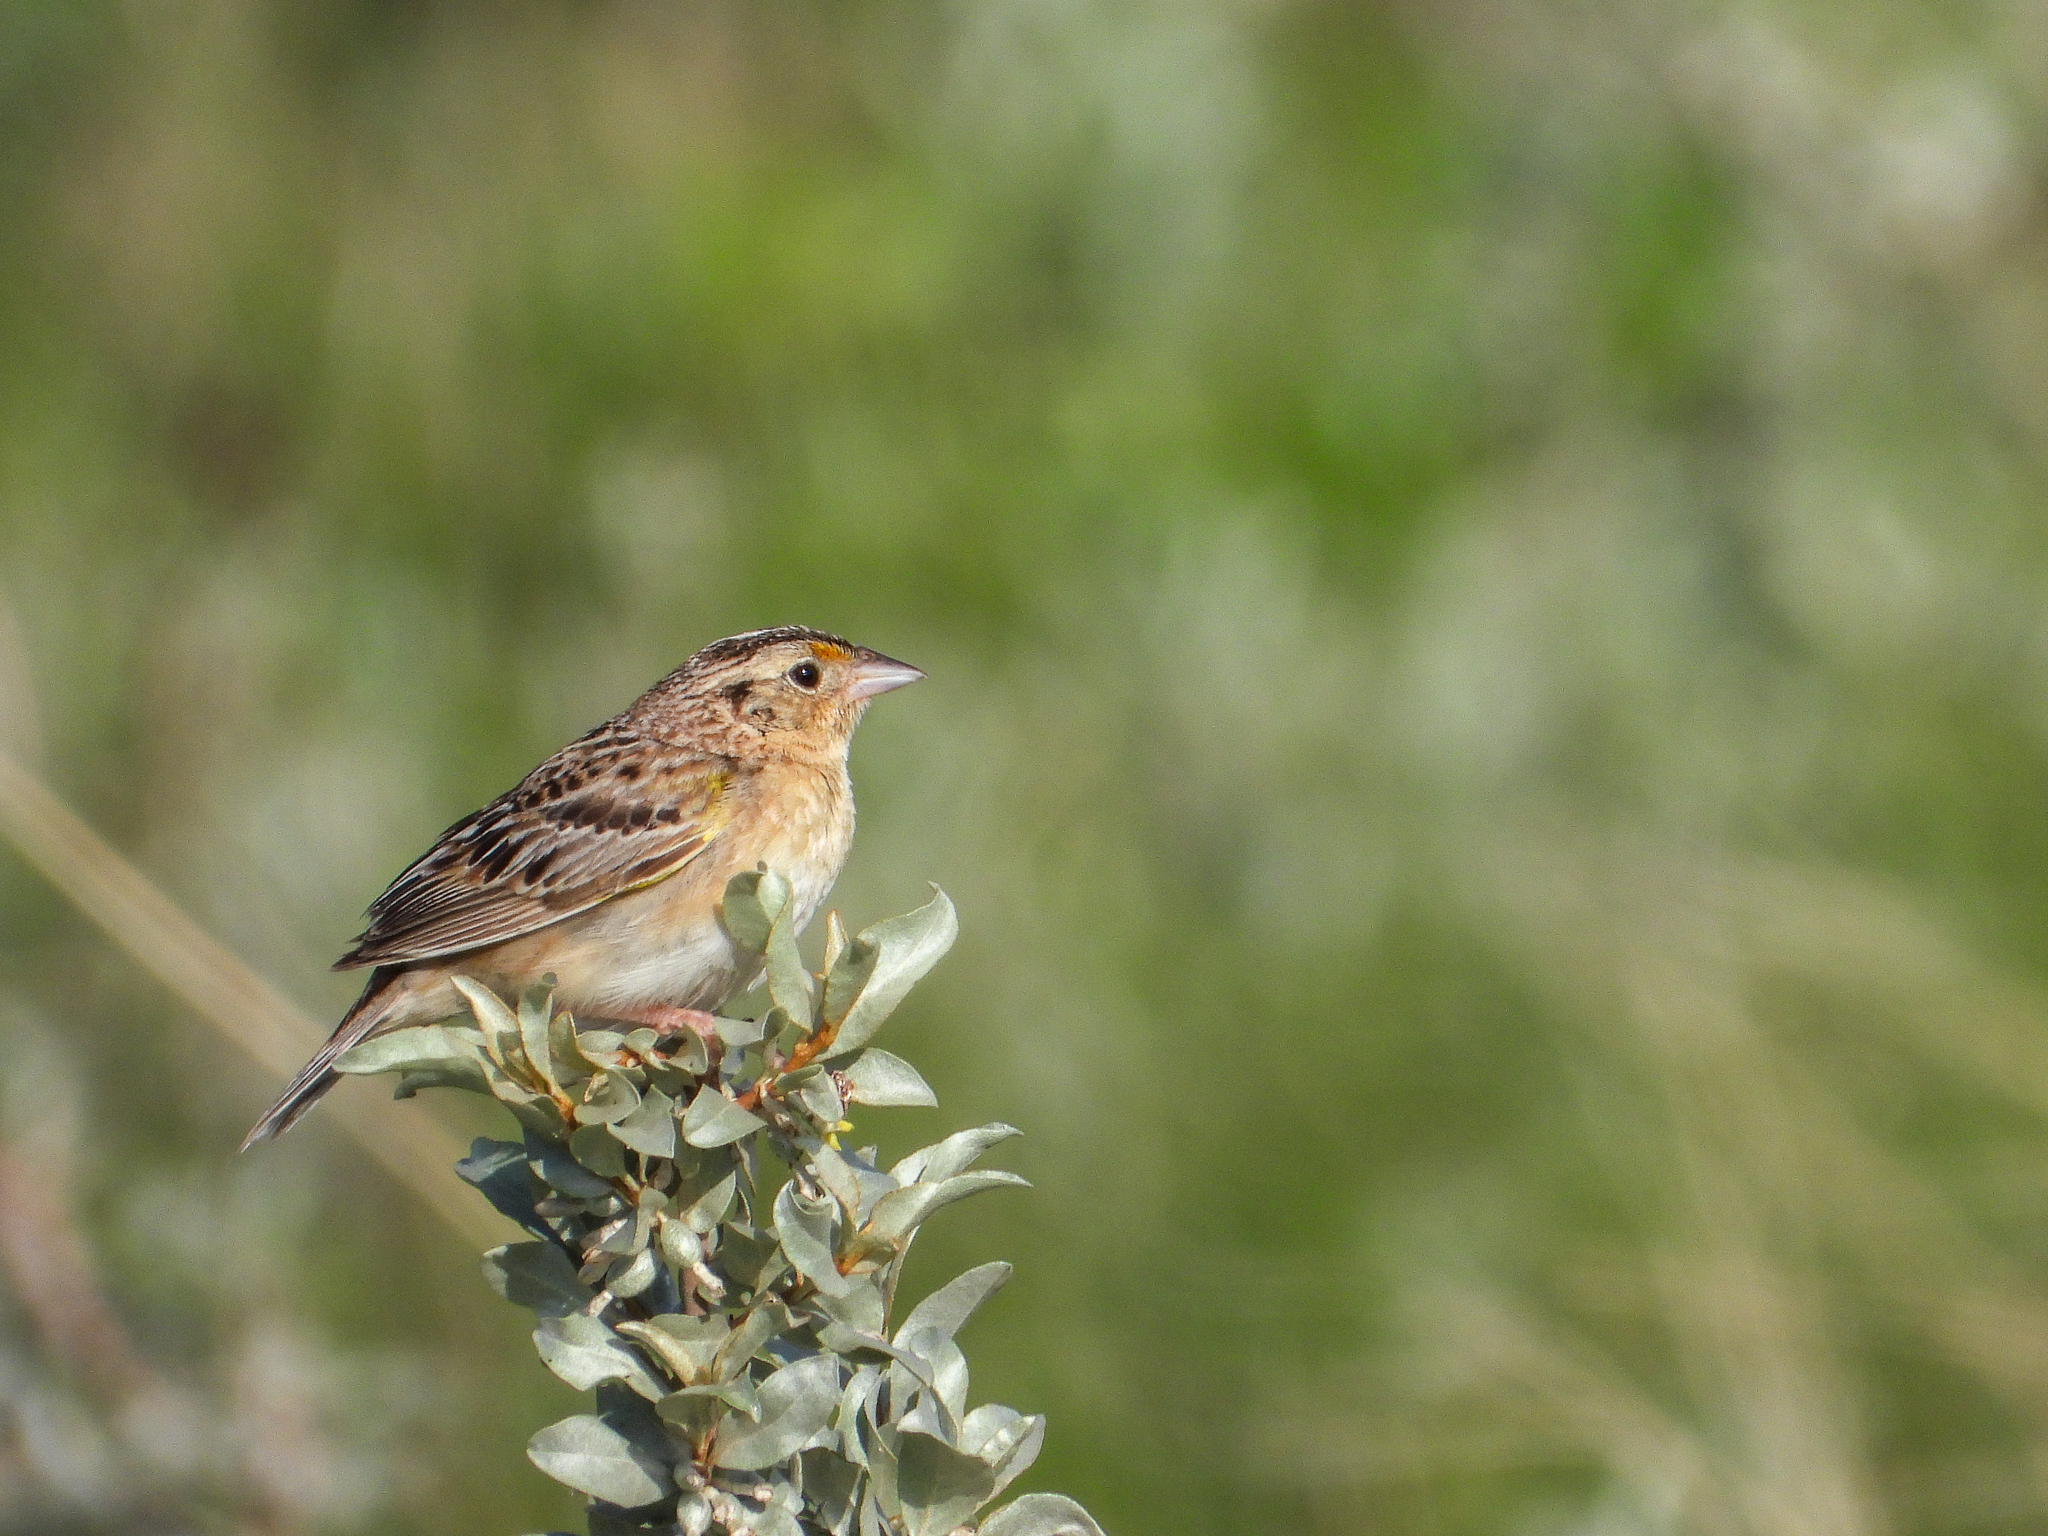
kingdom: Animalia
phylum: Chordata
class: Aves
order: Passeriformes
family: Passerellidae
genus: Ammodramus
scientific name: Ammodramus savannarum
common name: Grasshopper sparrow
